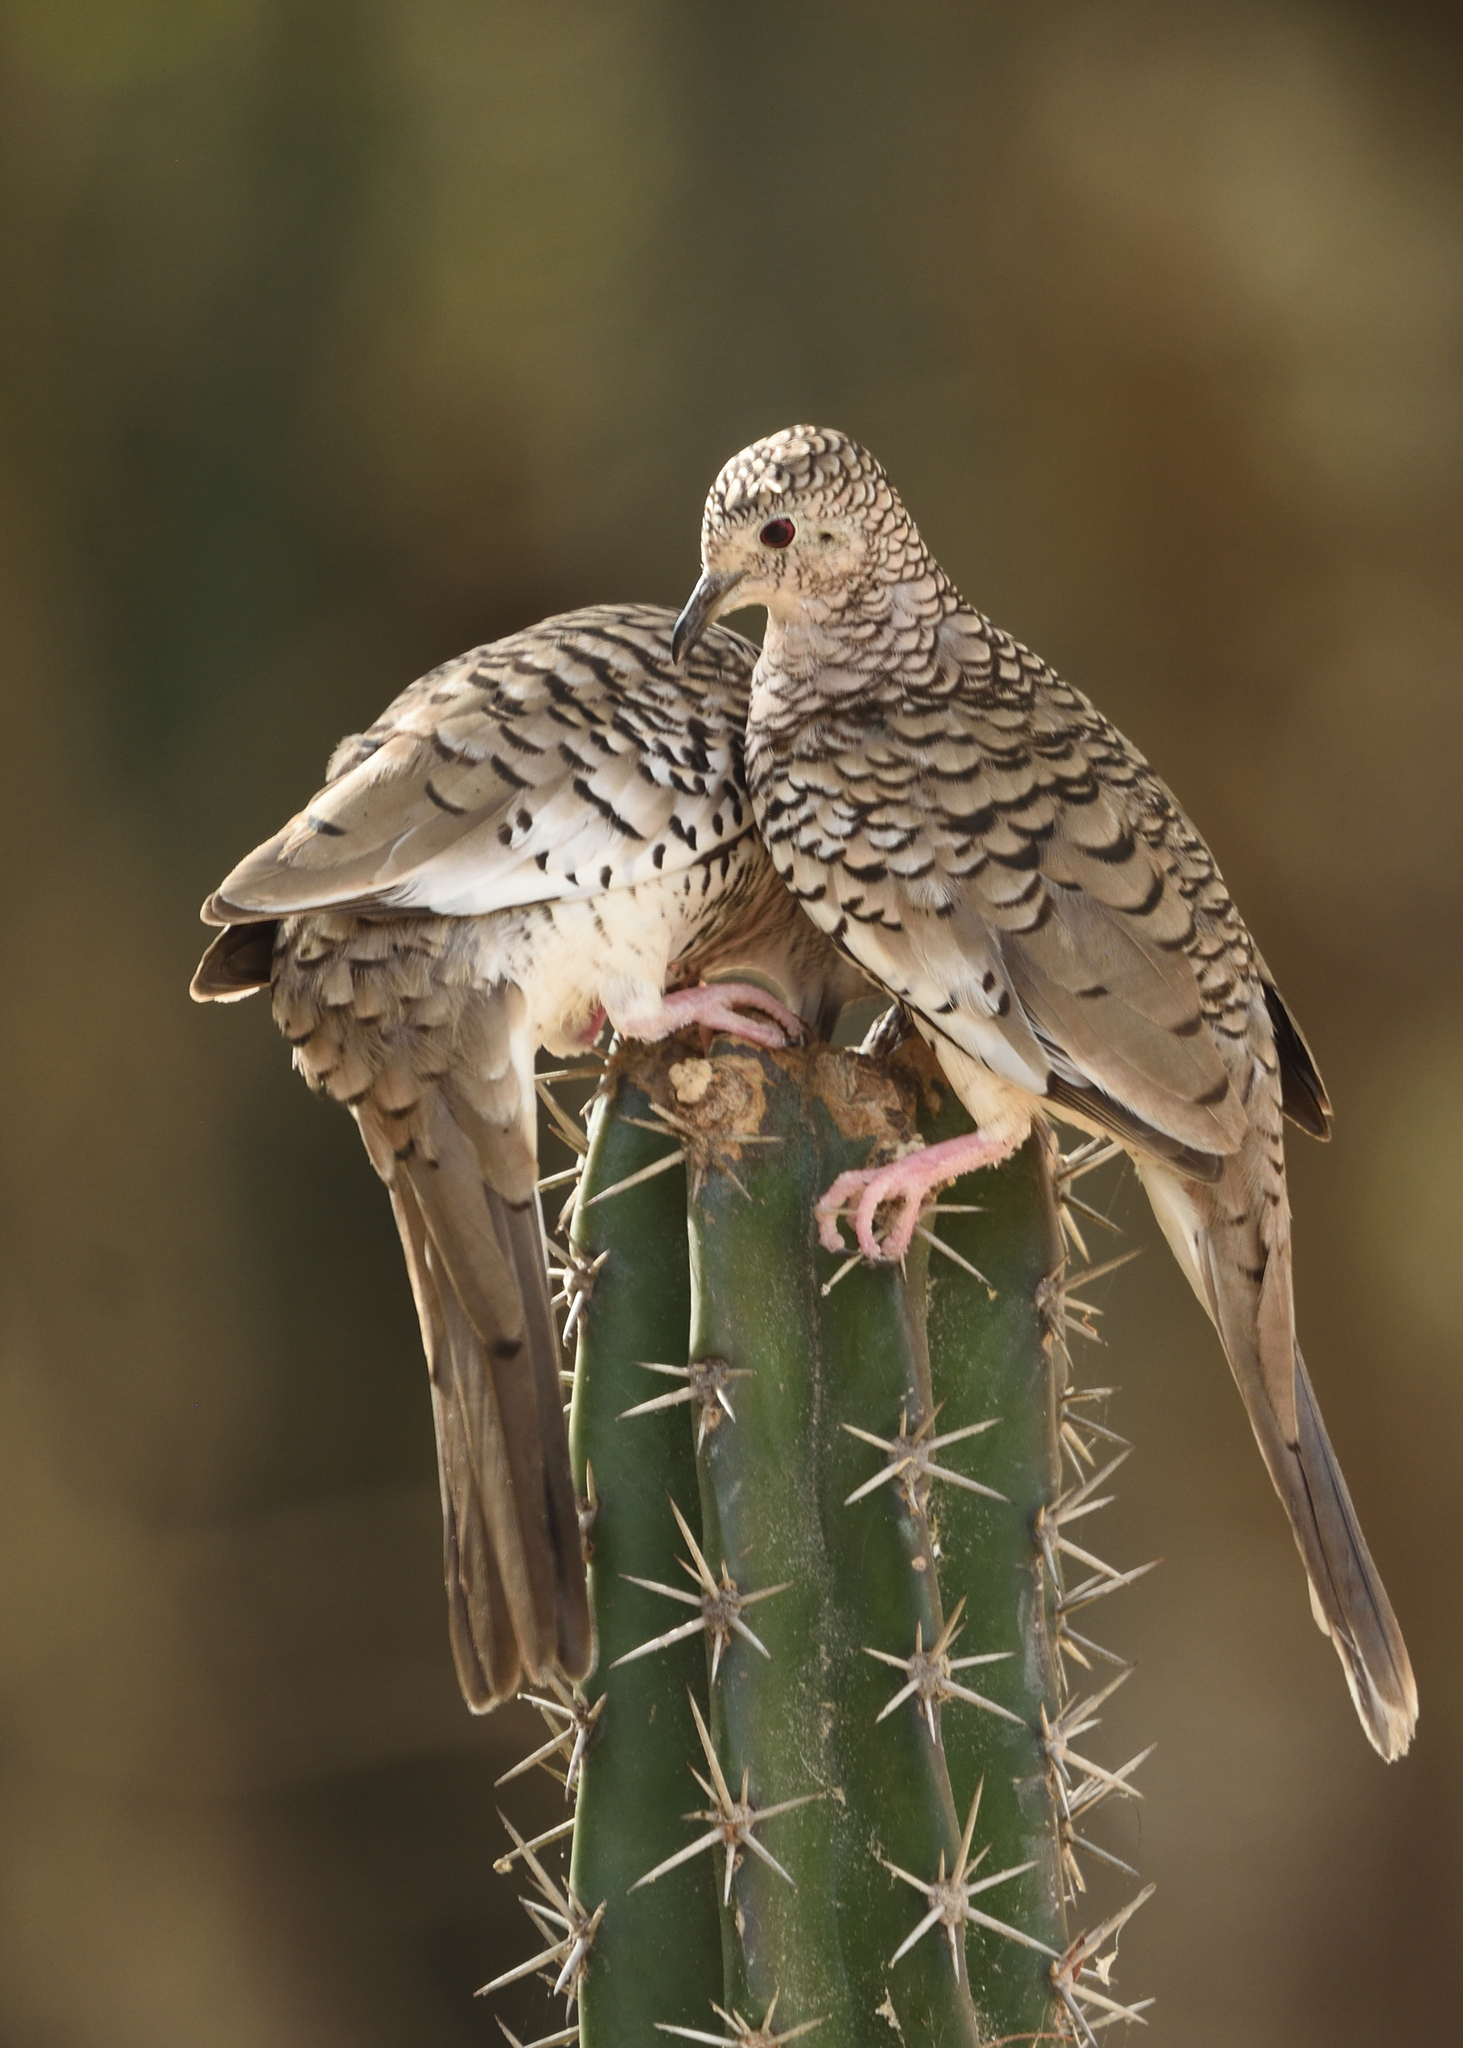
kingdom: Animalia
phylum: Chordata
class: Aves
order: Columbiformes
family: Columbidae
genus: Columbina
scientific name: Columbina squammata
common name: Scaled dove
